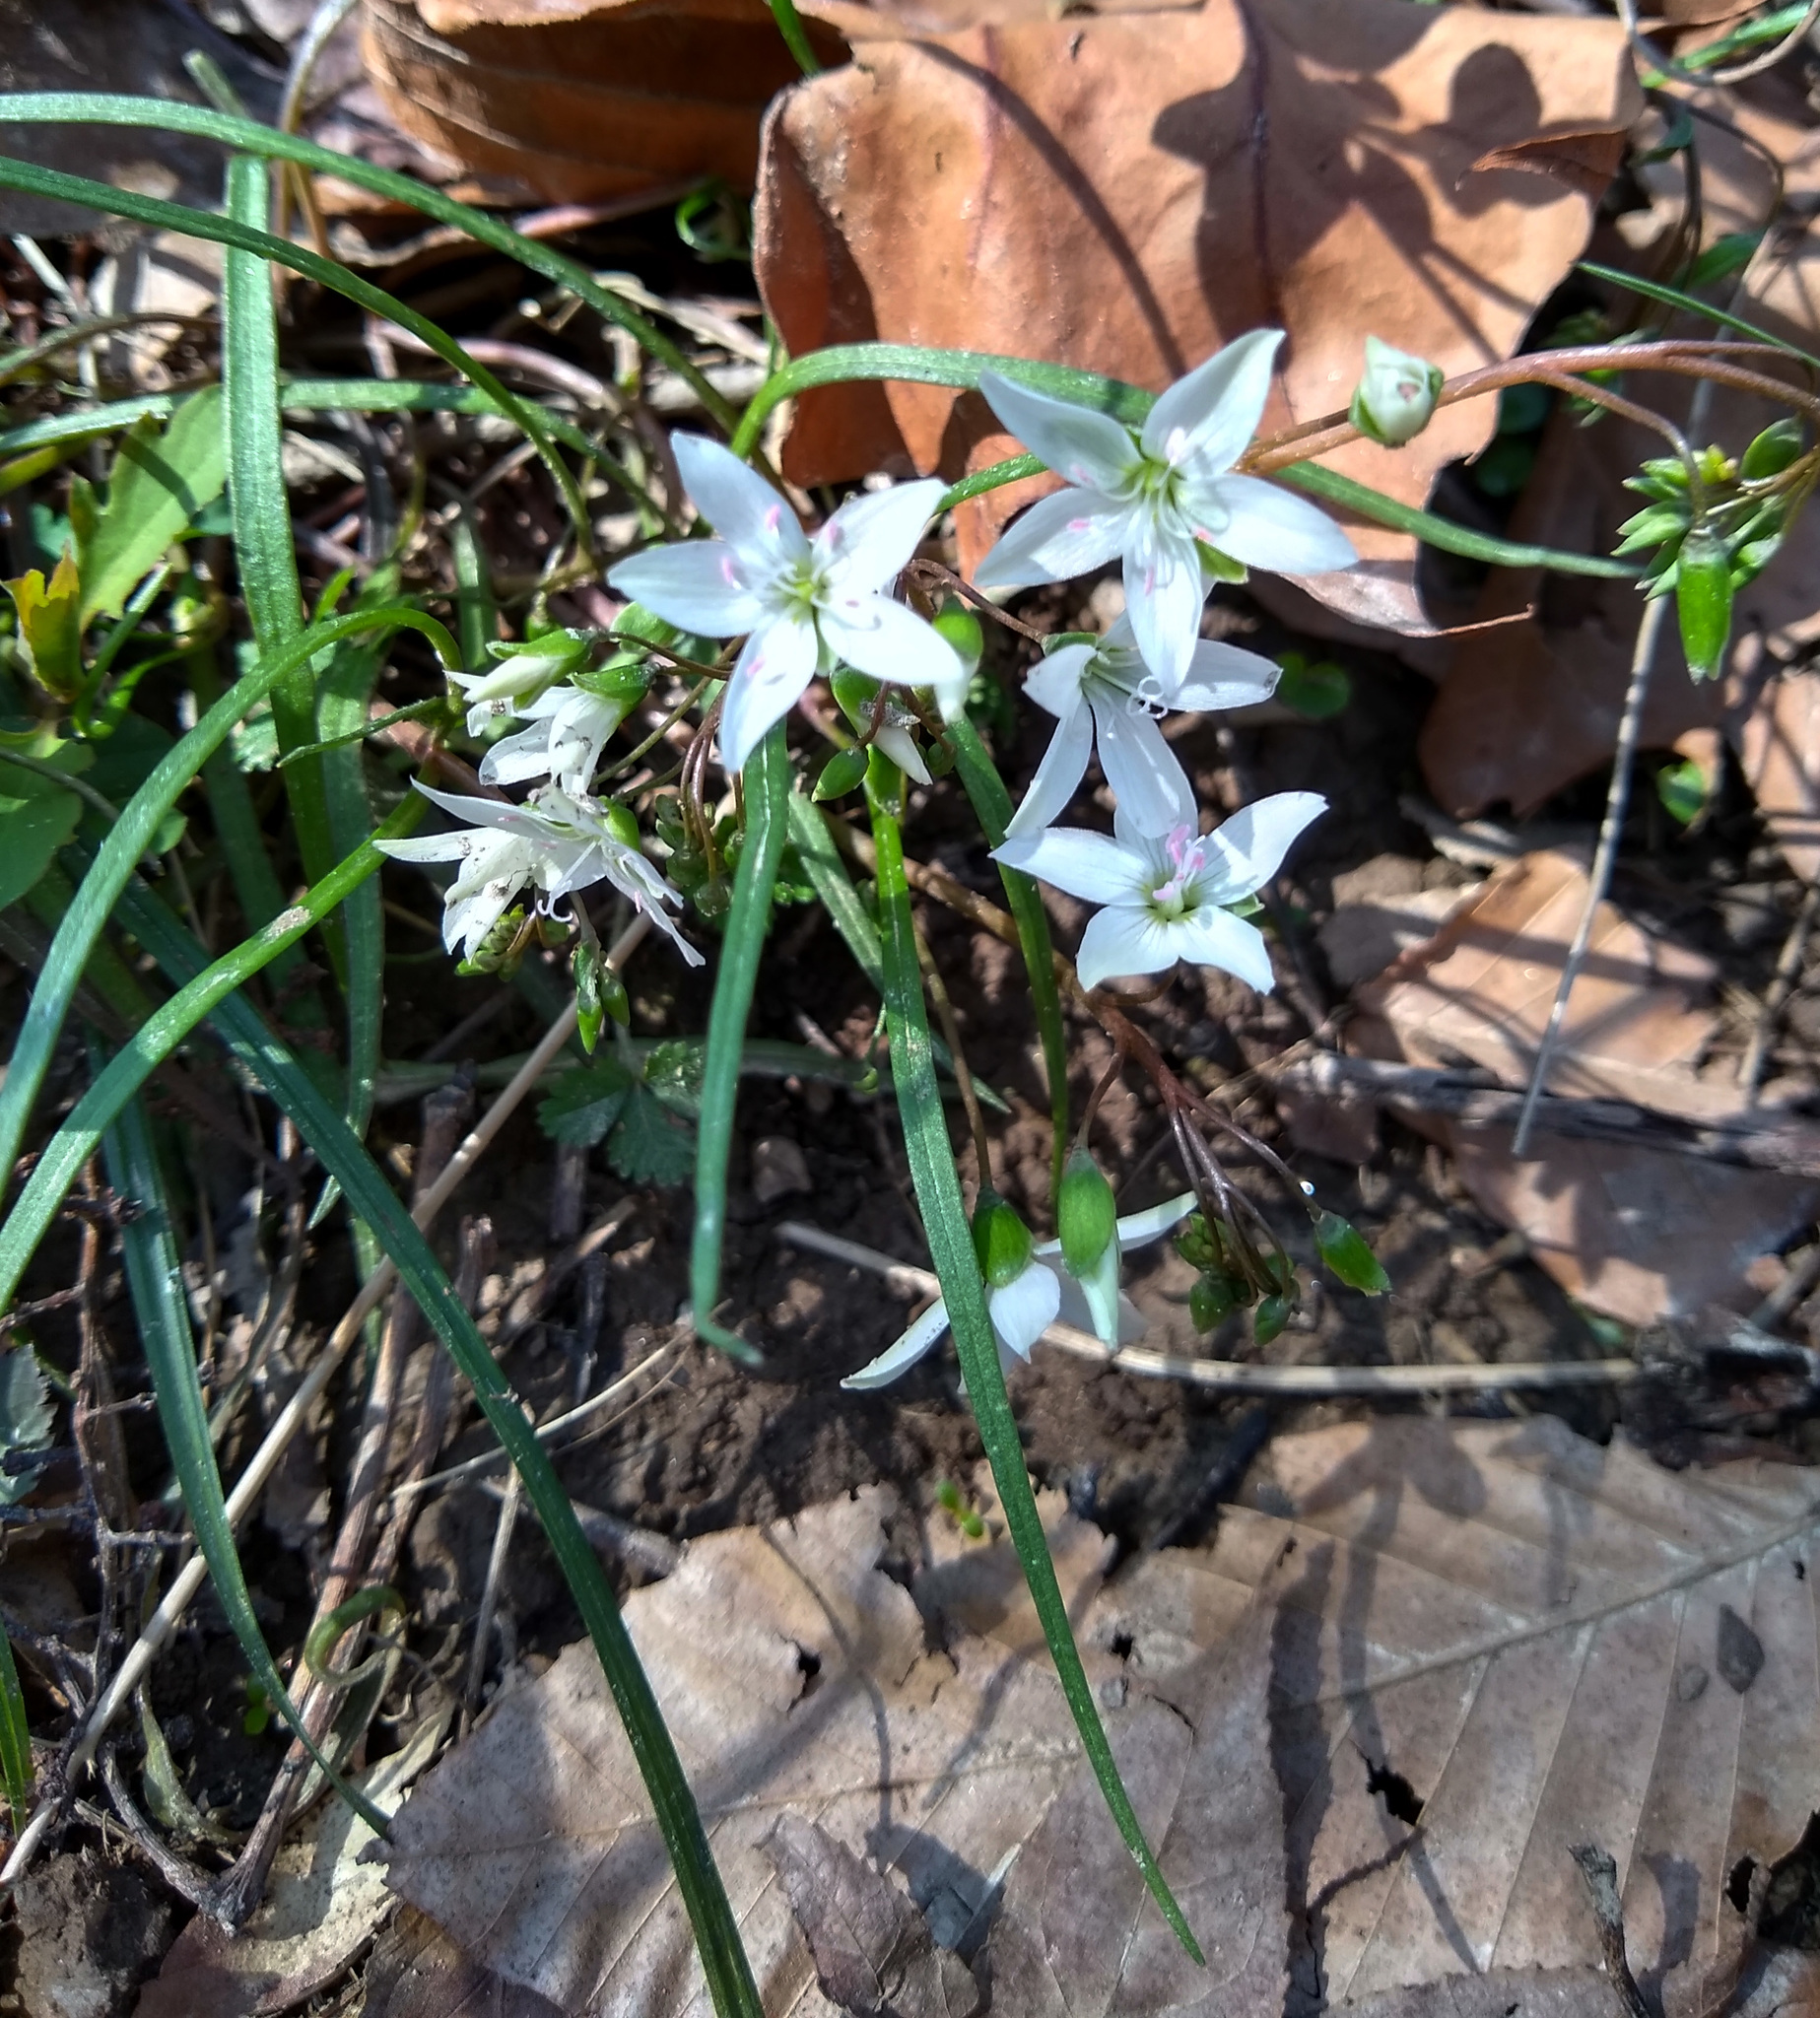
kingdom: Plantae
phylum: Tracheophyta
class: Magnoliopsida
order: Caryophyllales
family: Montiaceae
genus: Claytonia
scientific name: Claytonia virginica
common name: Virginia springbeauty
